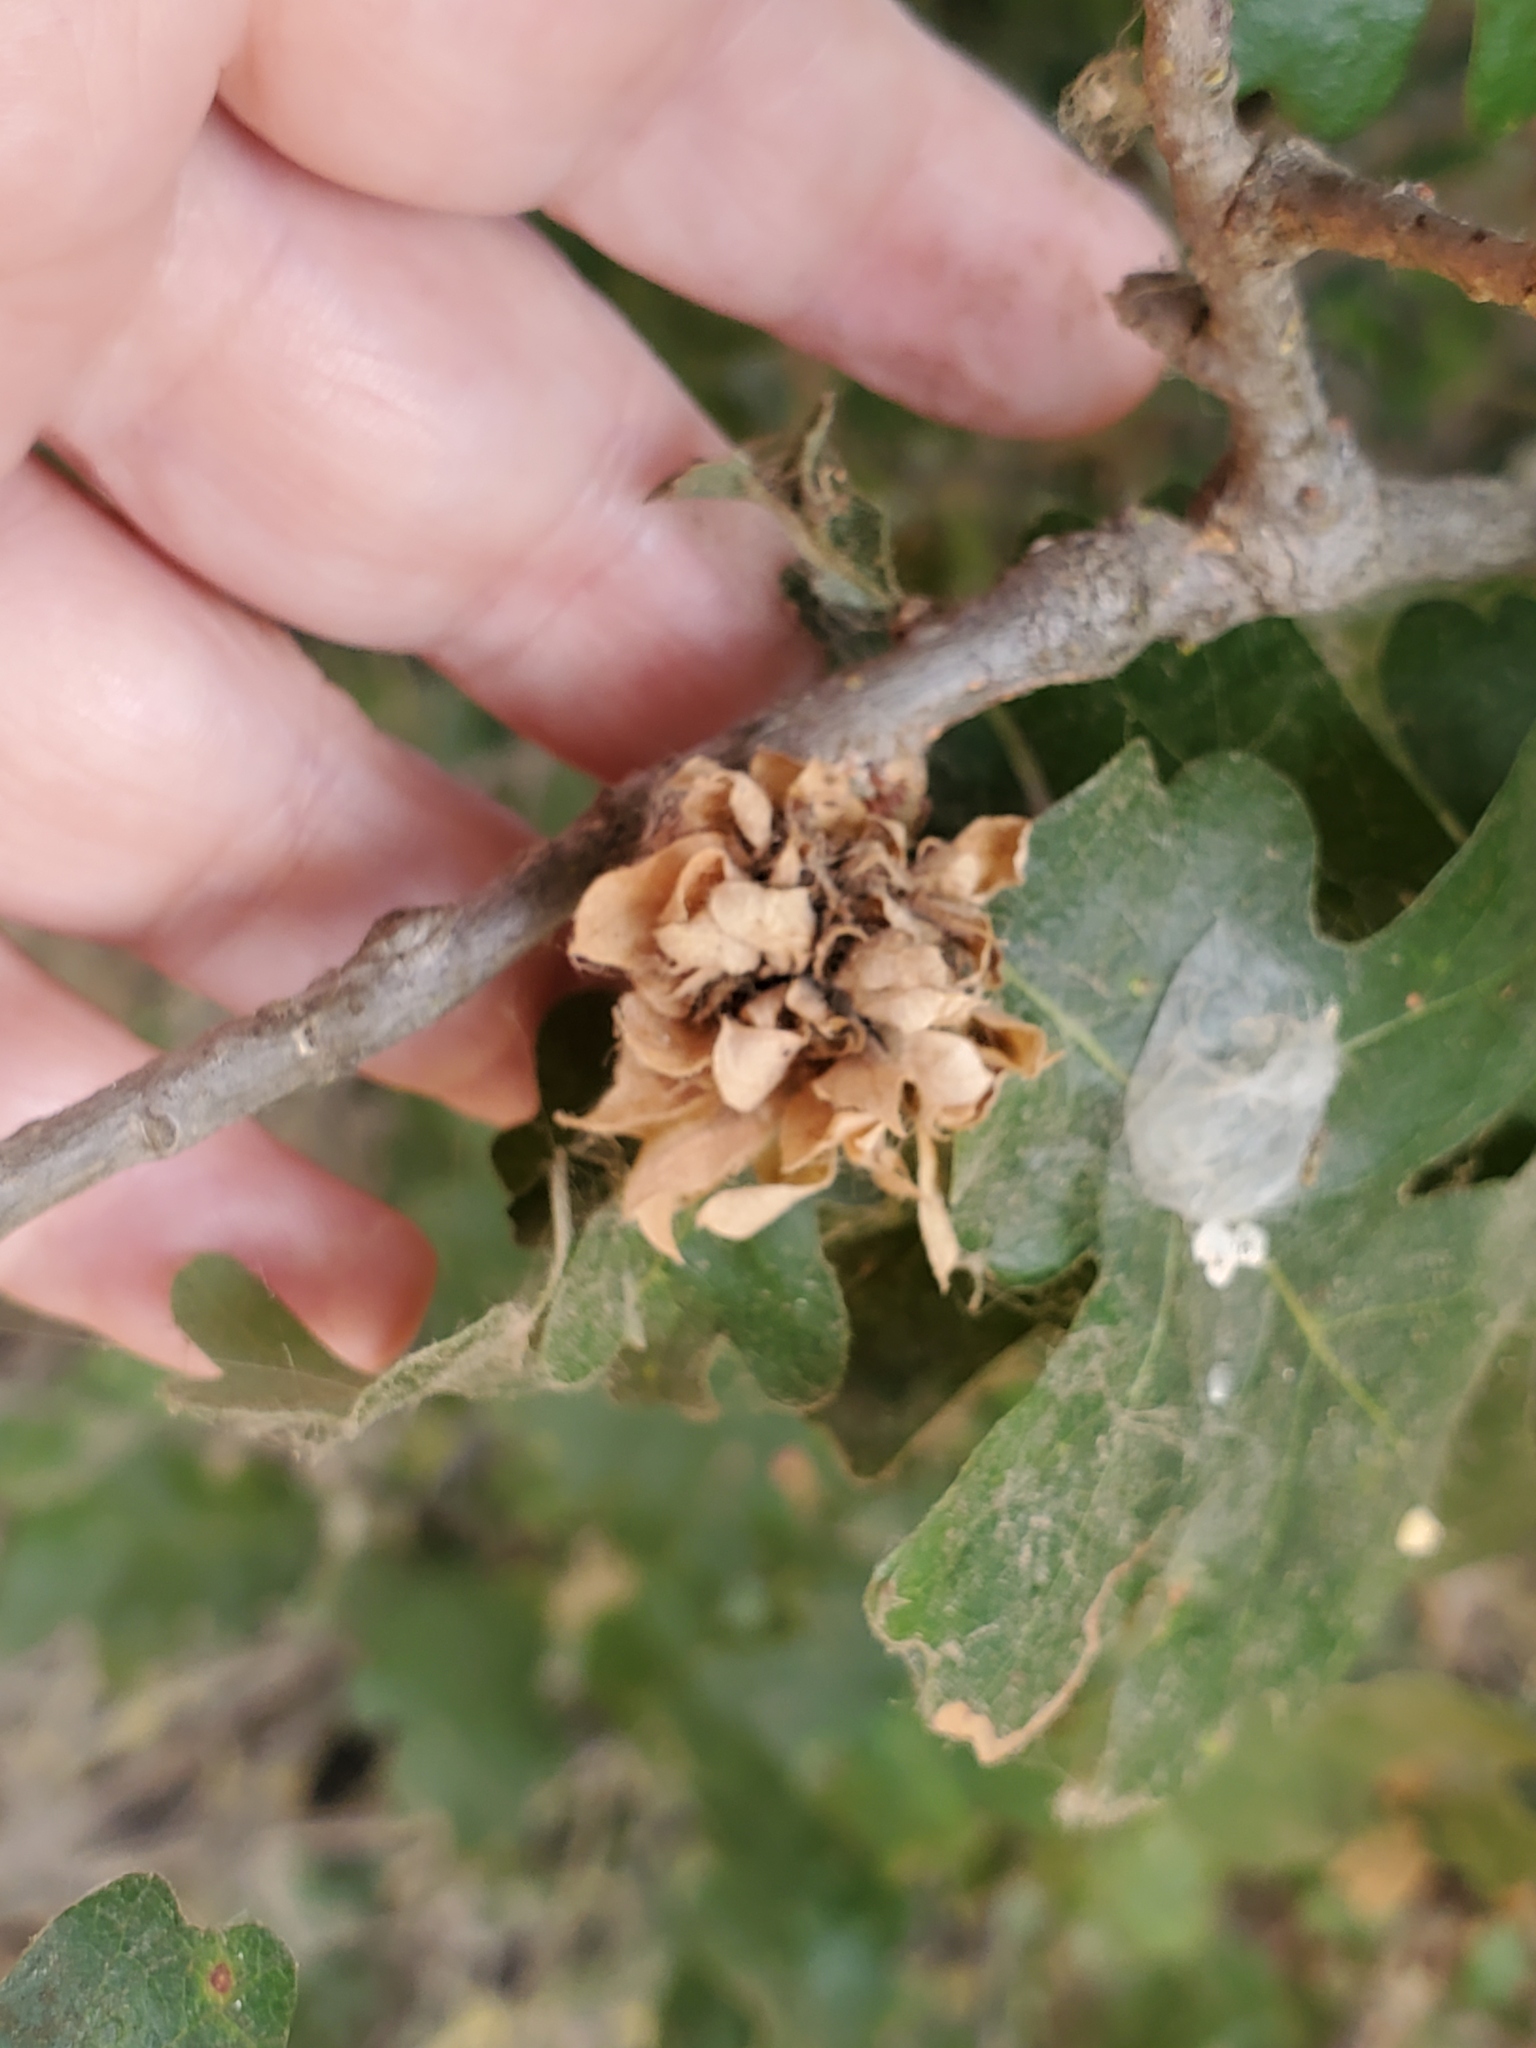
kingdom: Animalia
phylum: Arthropoda
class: Insecta
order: Hymenoptera
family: Cynipidae
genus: Andricus
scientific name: Andricus
